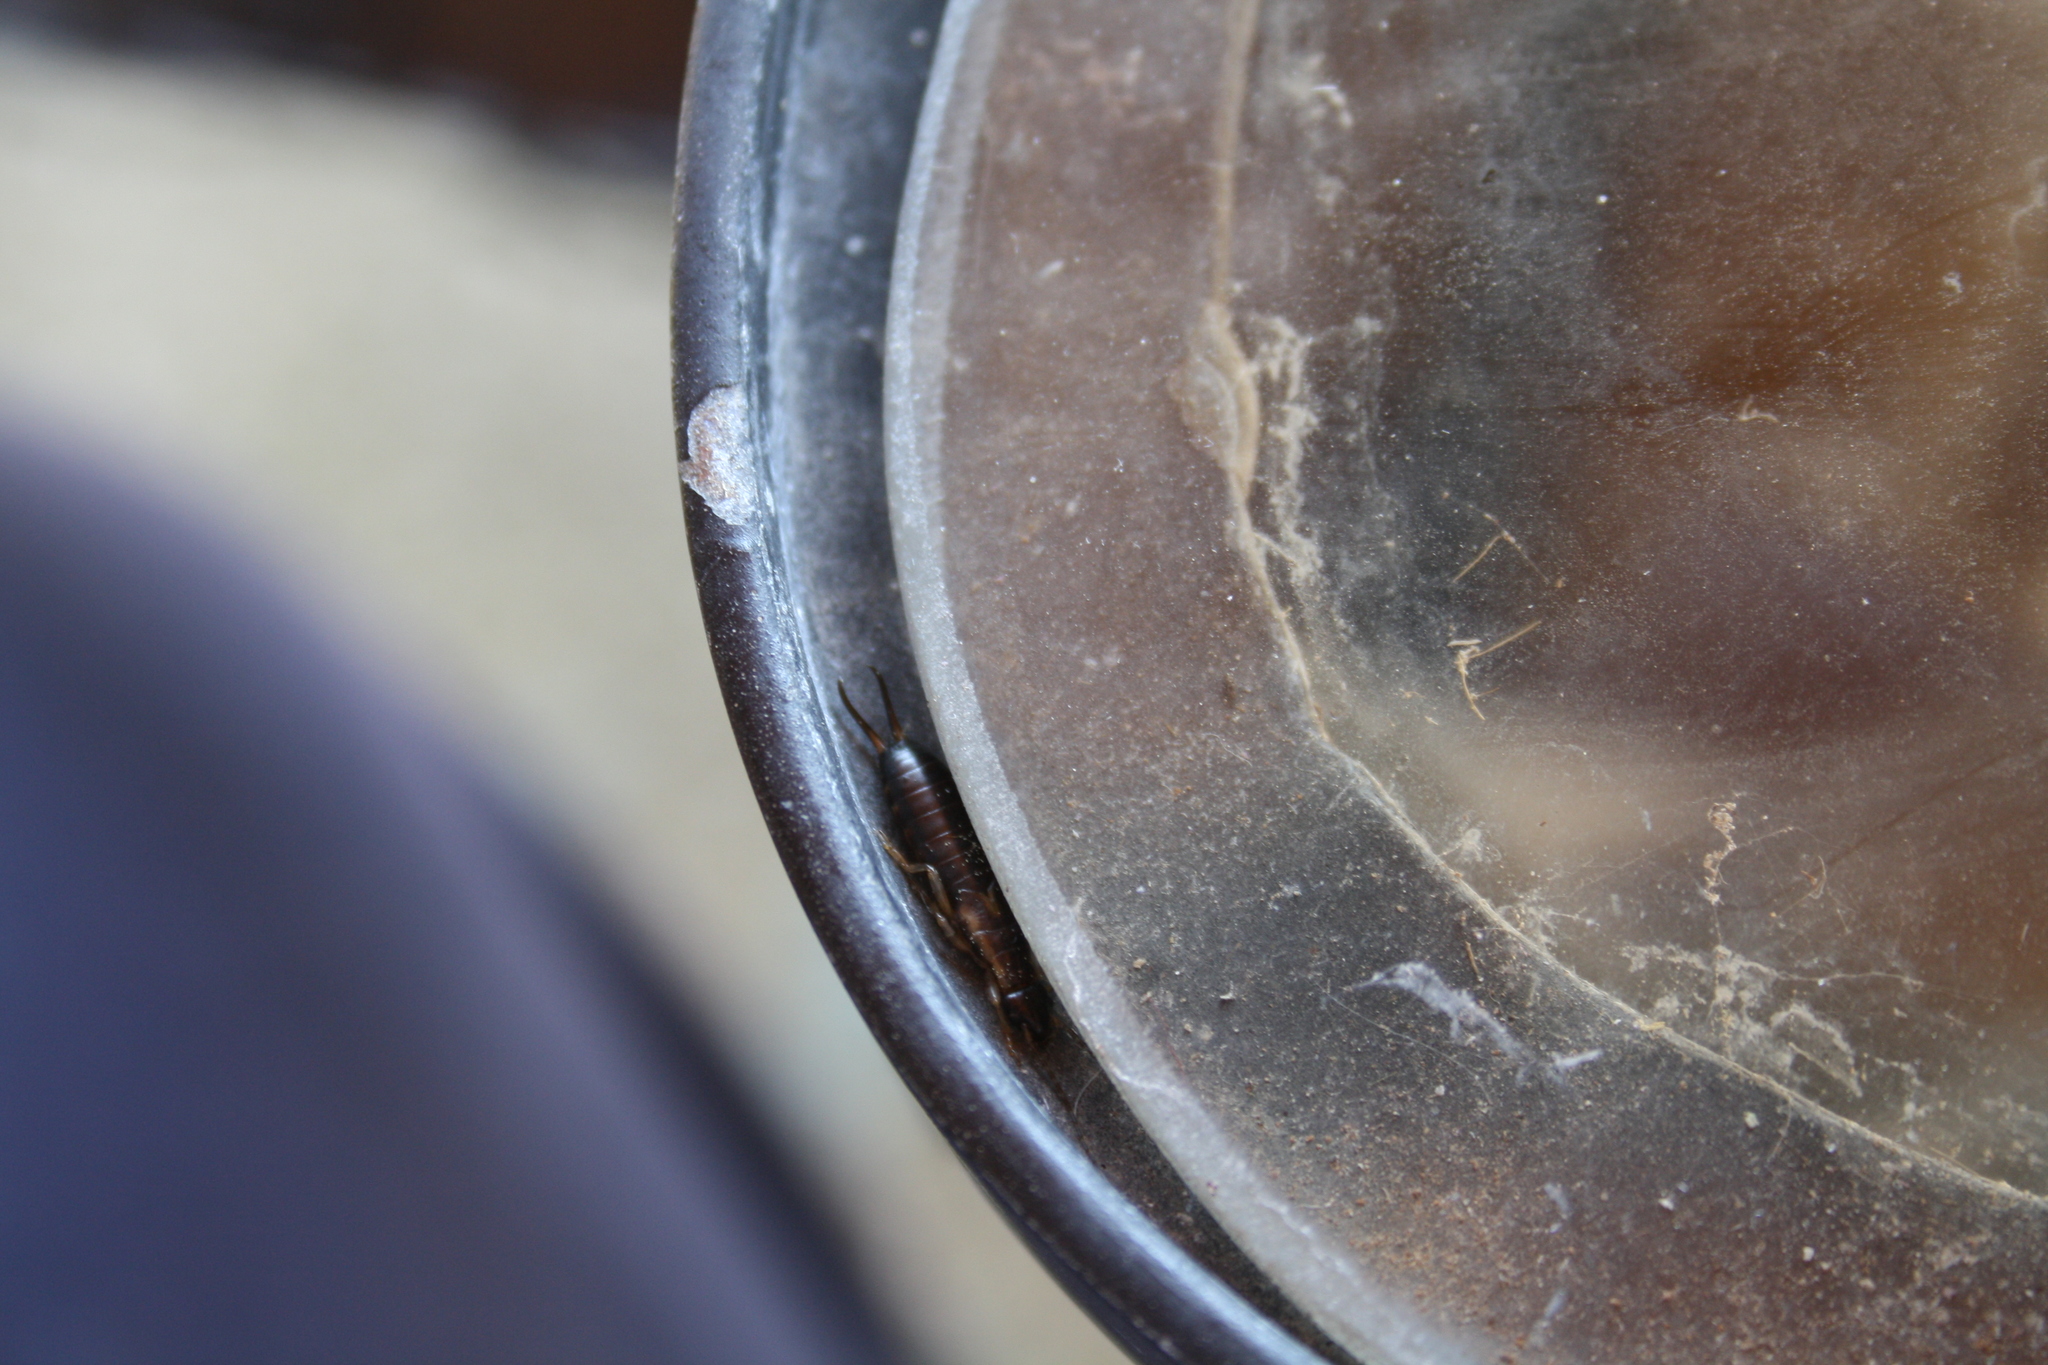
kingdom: Animalia
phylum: Arthropoda
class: Insecta
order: Dermaptera
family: Forficulidae
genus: Forficula
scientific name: Forficula
